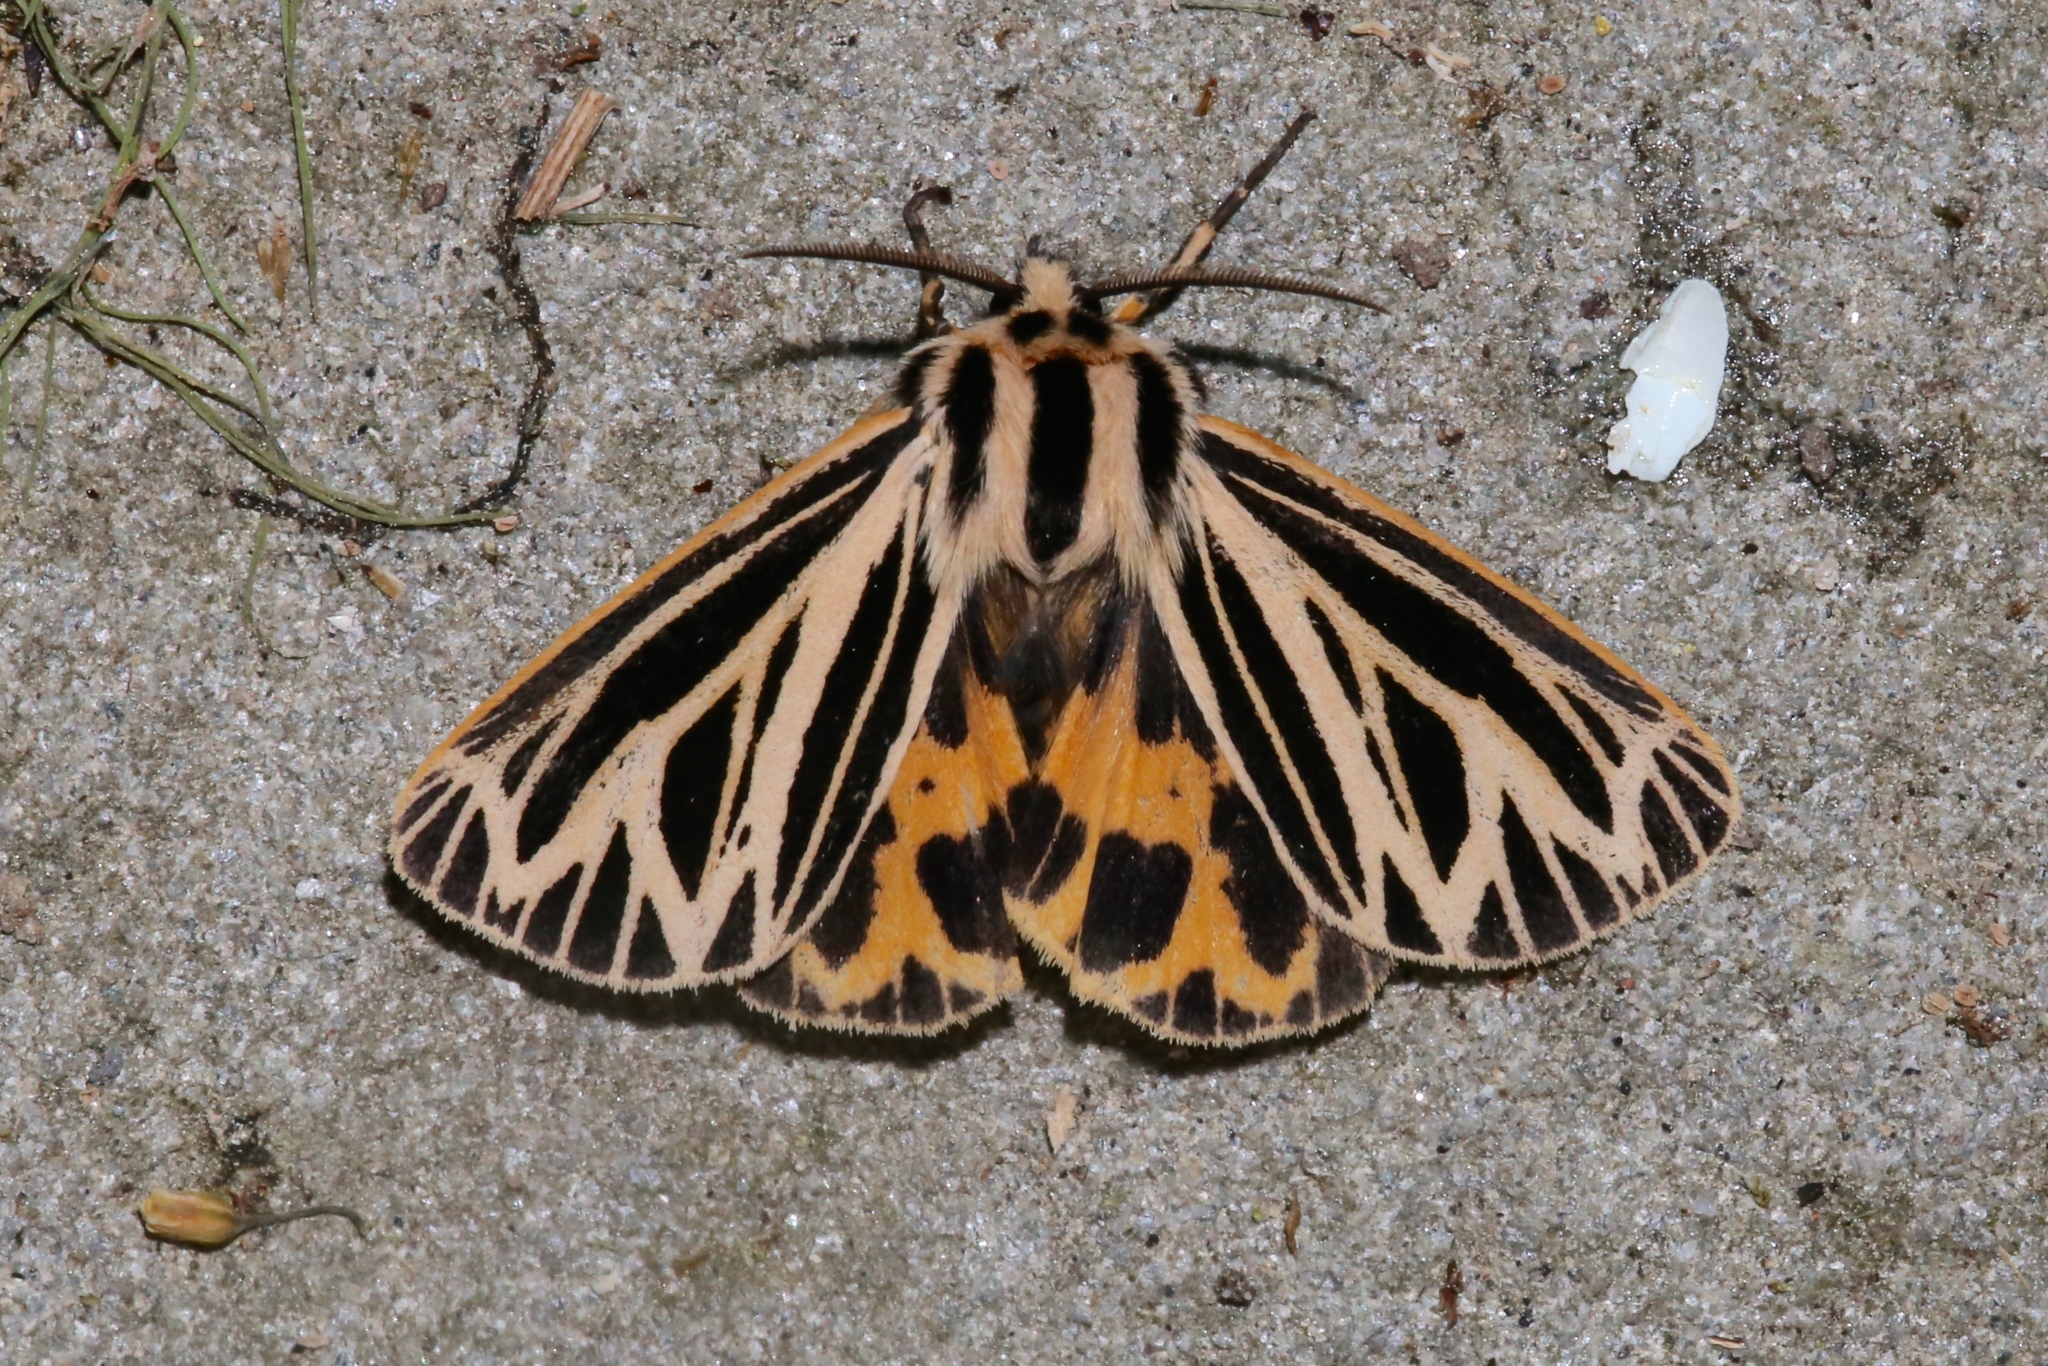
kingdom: Animalia
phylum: Arthropoda
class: Insecta
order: Lepidoptera
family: Erebidae
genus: Grammia
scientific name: Grammia virguncula
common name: Little tiger moth
